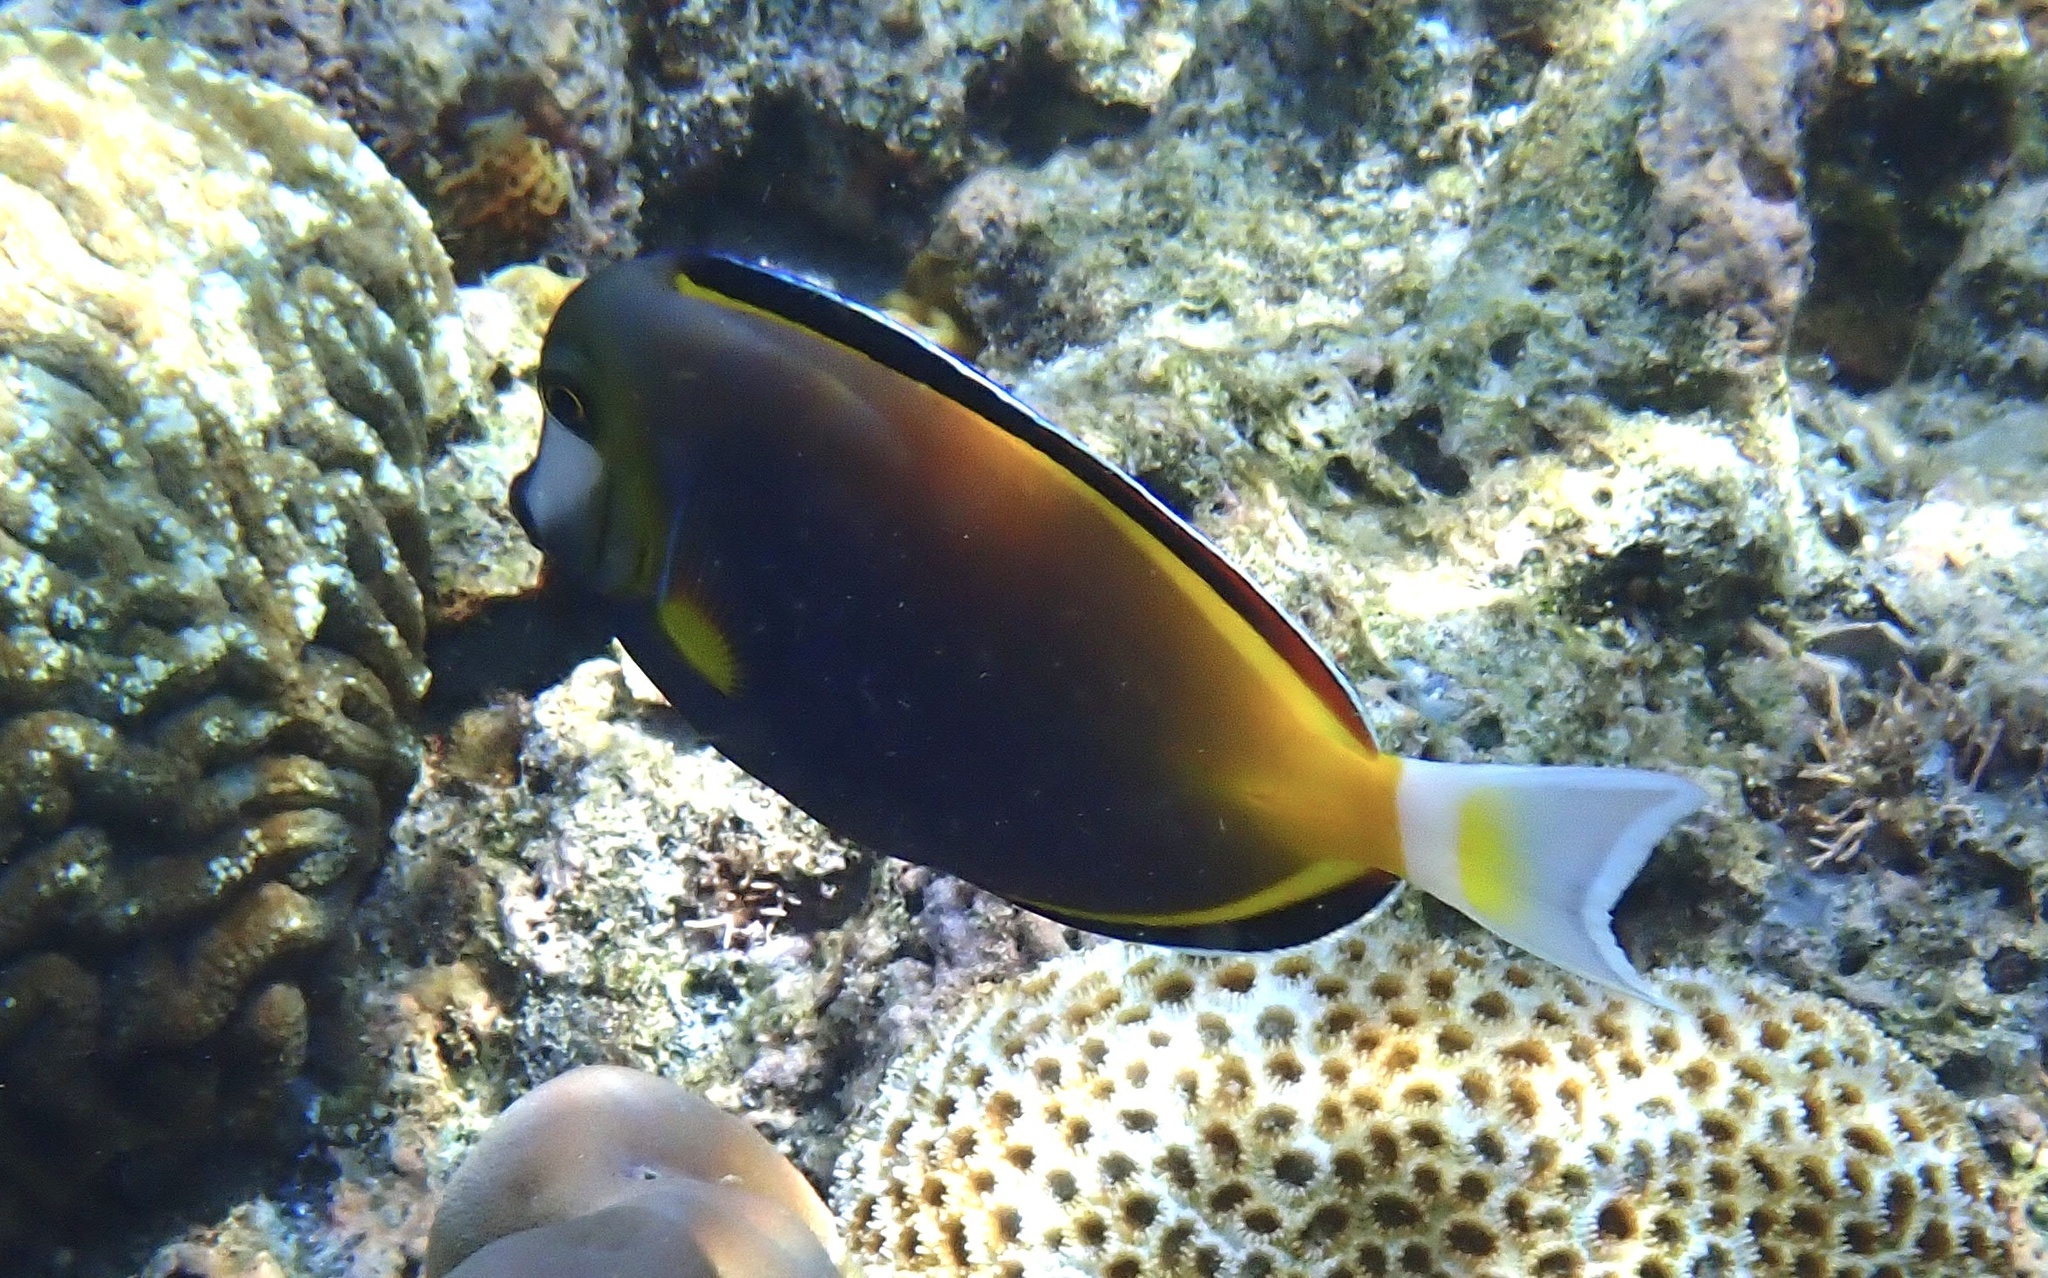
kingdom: Animalia
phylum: Chordata
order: Perciformes
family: Acanthuridae
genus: Acanthurus
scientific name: Acanthurus japonicus
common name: Japanese surgeonfish
